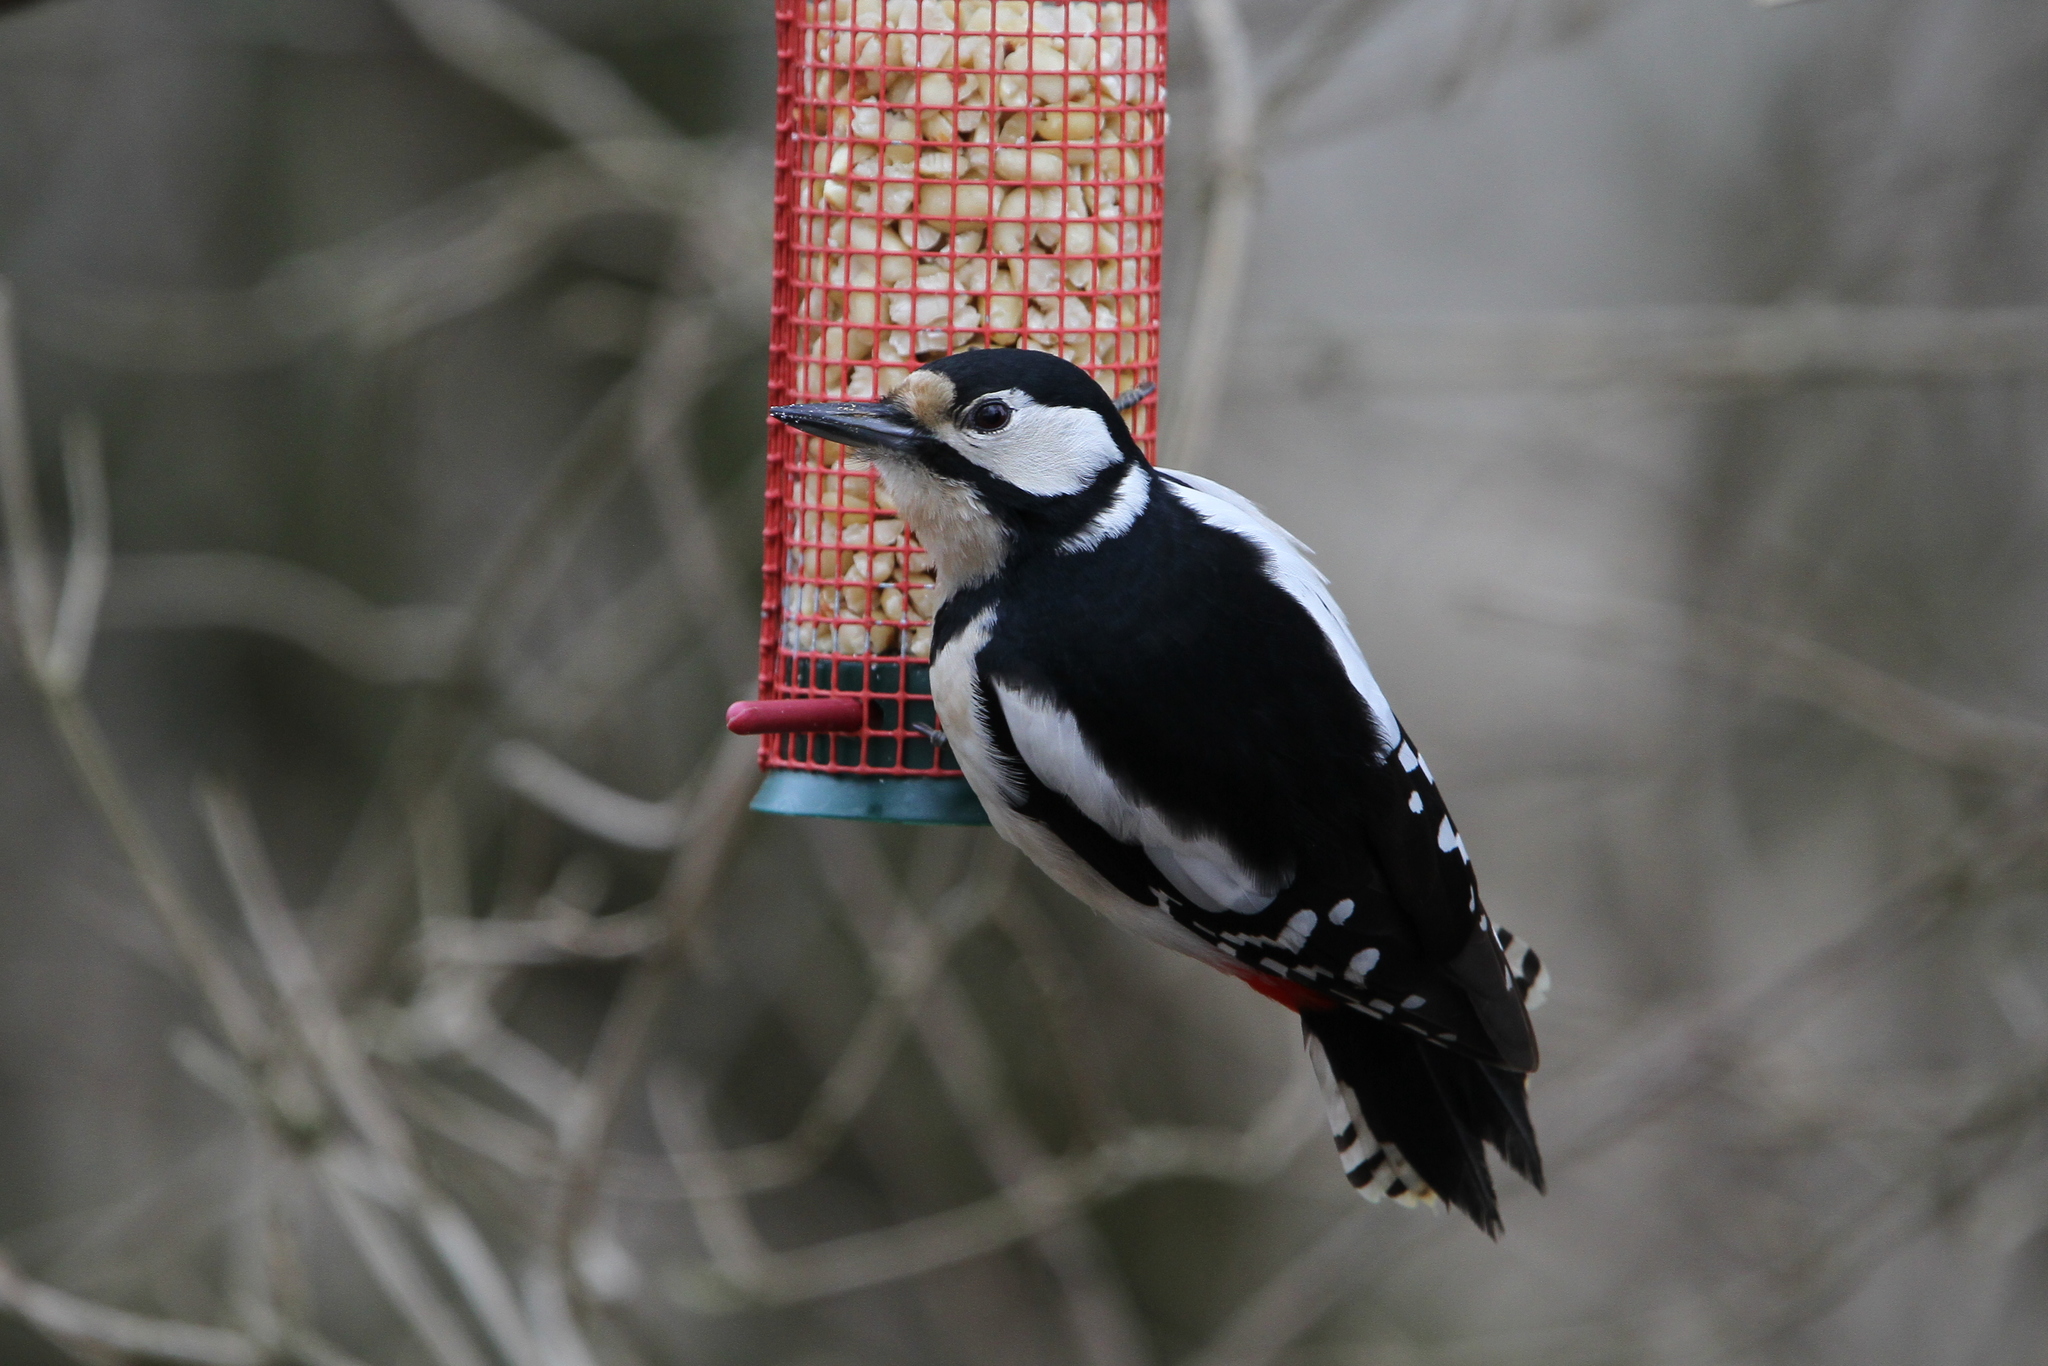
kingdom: Animalia
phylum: Chordata
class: Aves
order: Piciformes
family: Picidae
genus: Dendrocopos
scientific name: Dendrocopos major
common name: Great spotted woodpecker
